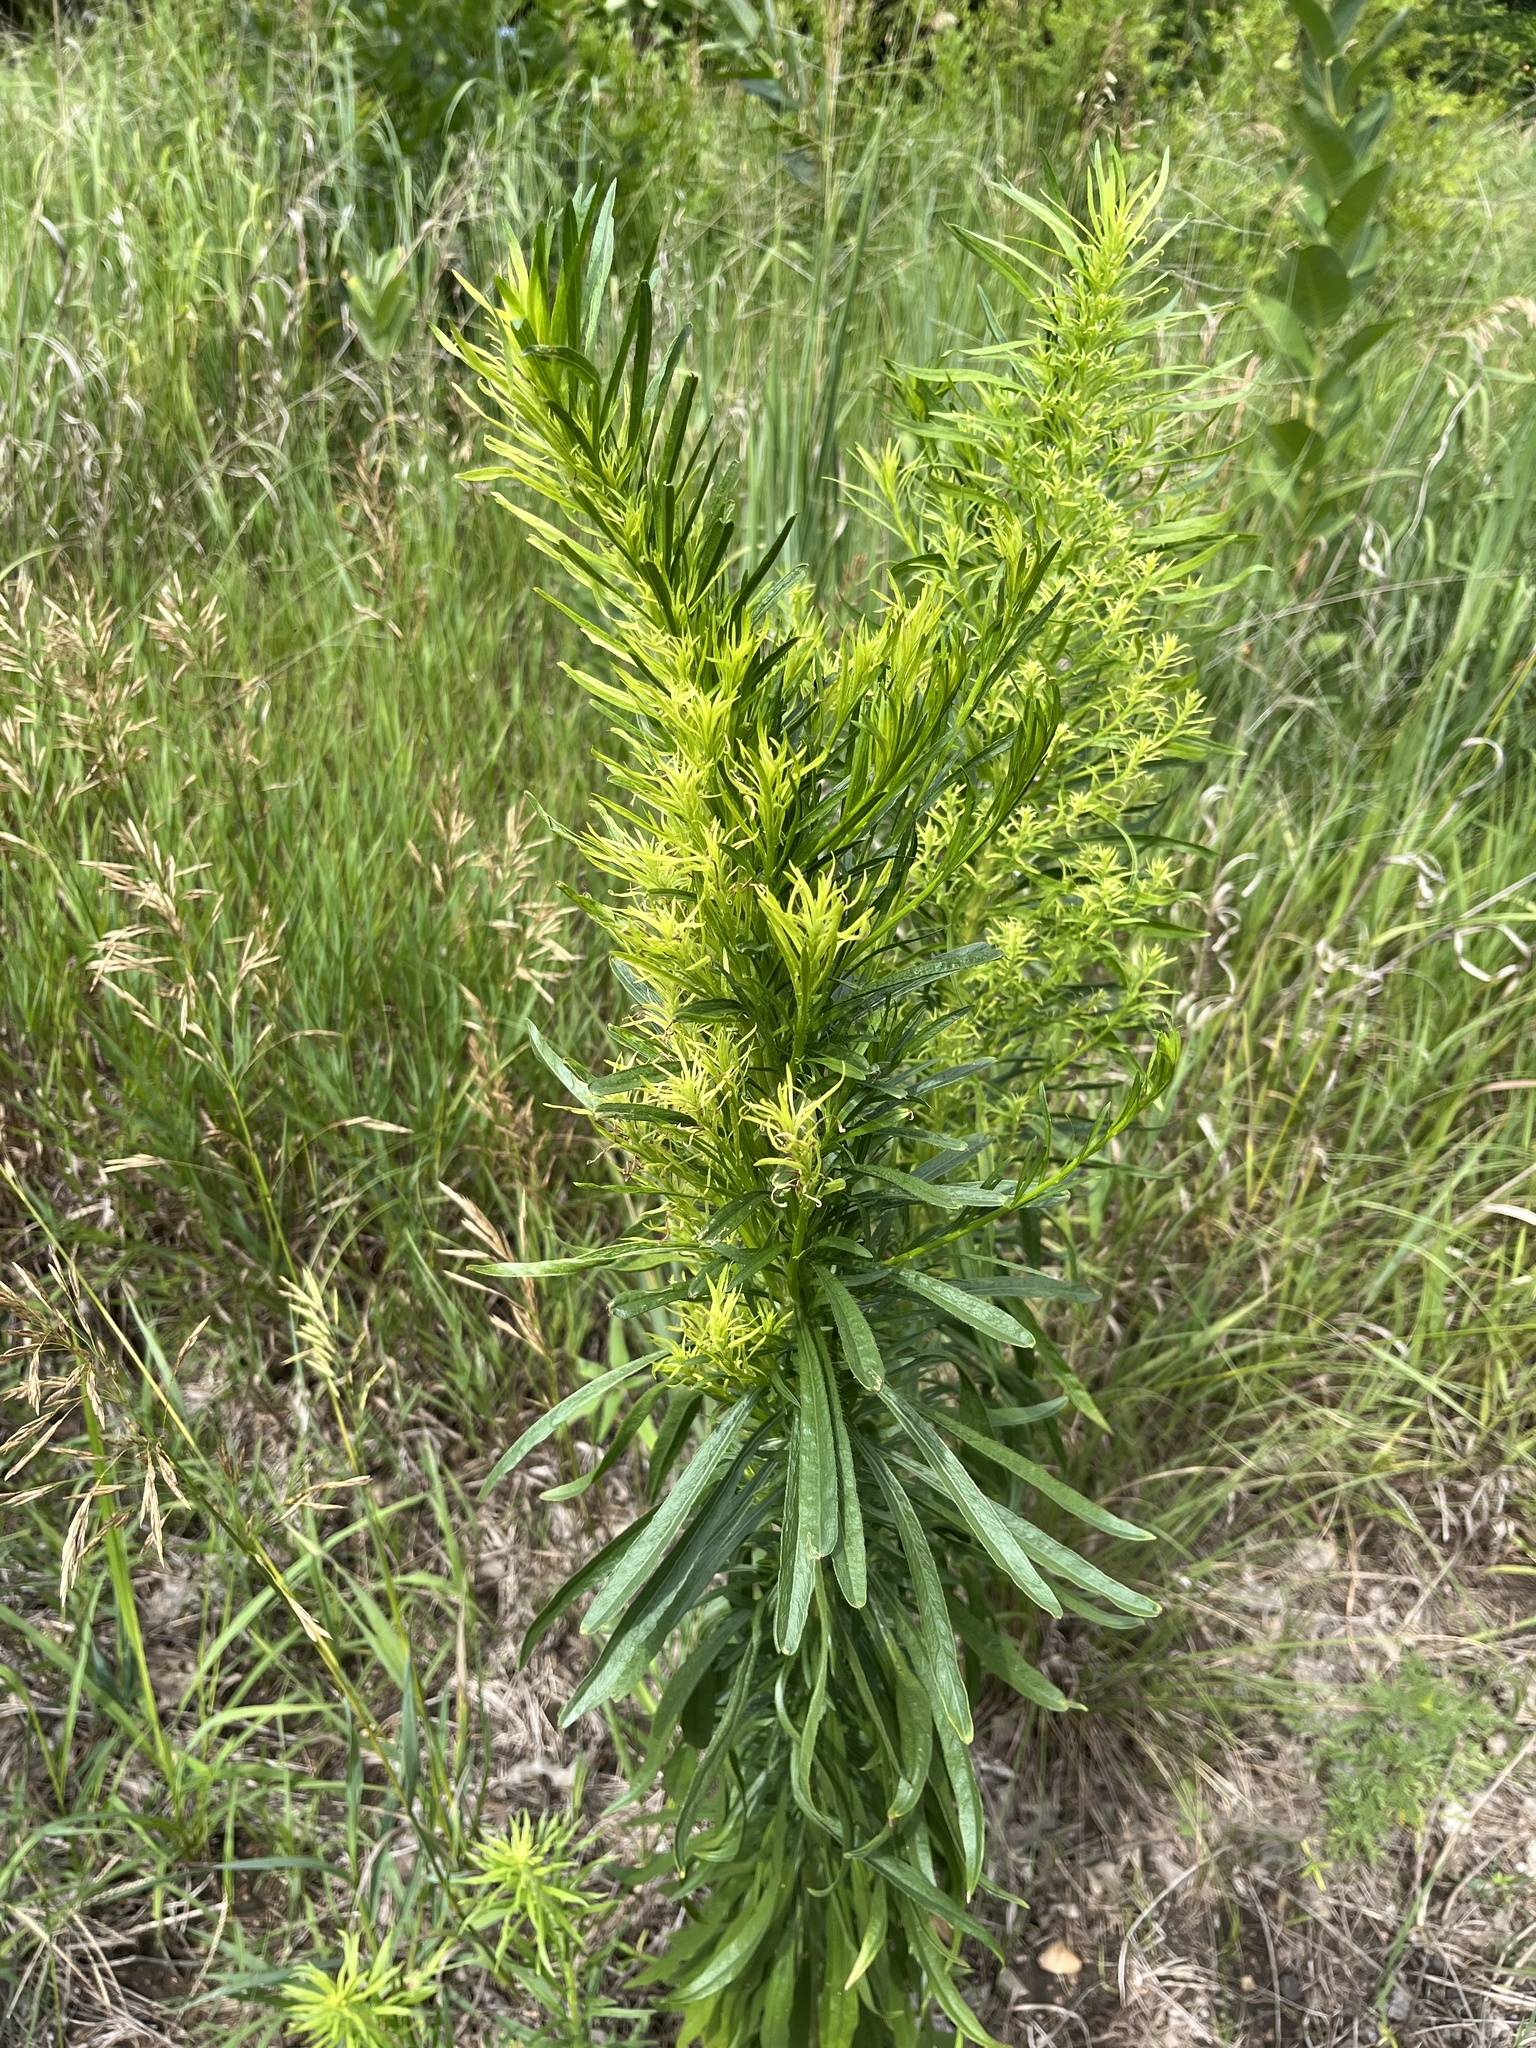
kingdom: Plantae
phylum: Tracheophyta
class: Magnoliopsida
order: Asterales
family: Asteraceae
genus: Erigeron
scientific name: Erigeron canadensis
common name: Canadian fleabane
